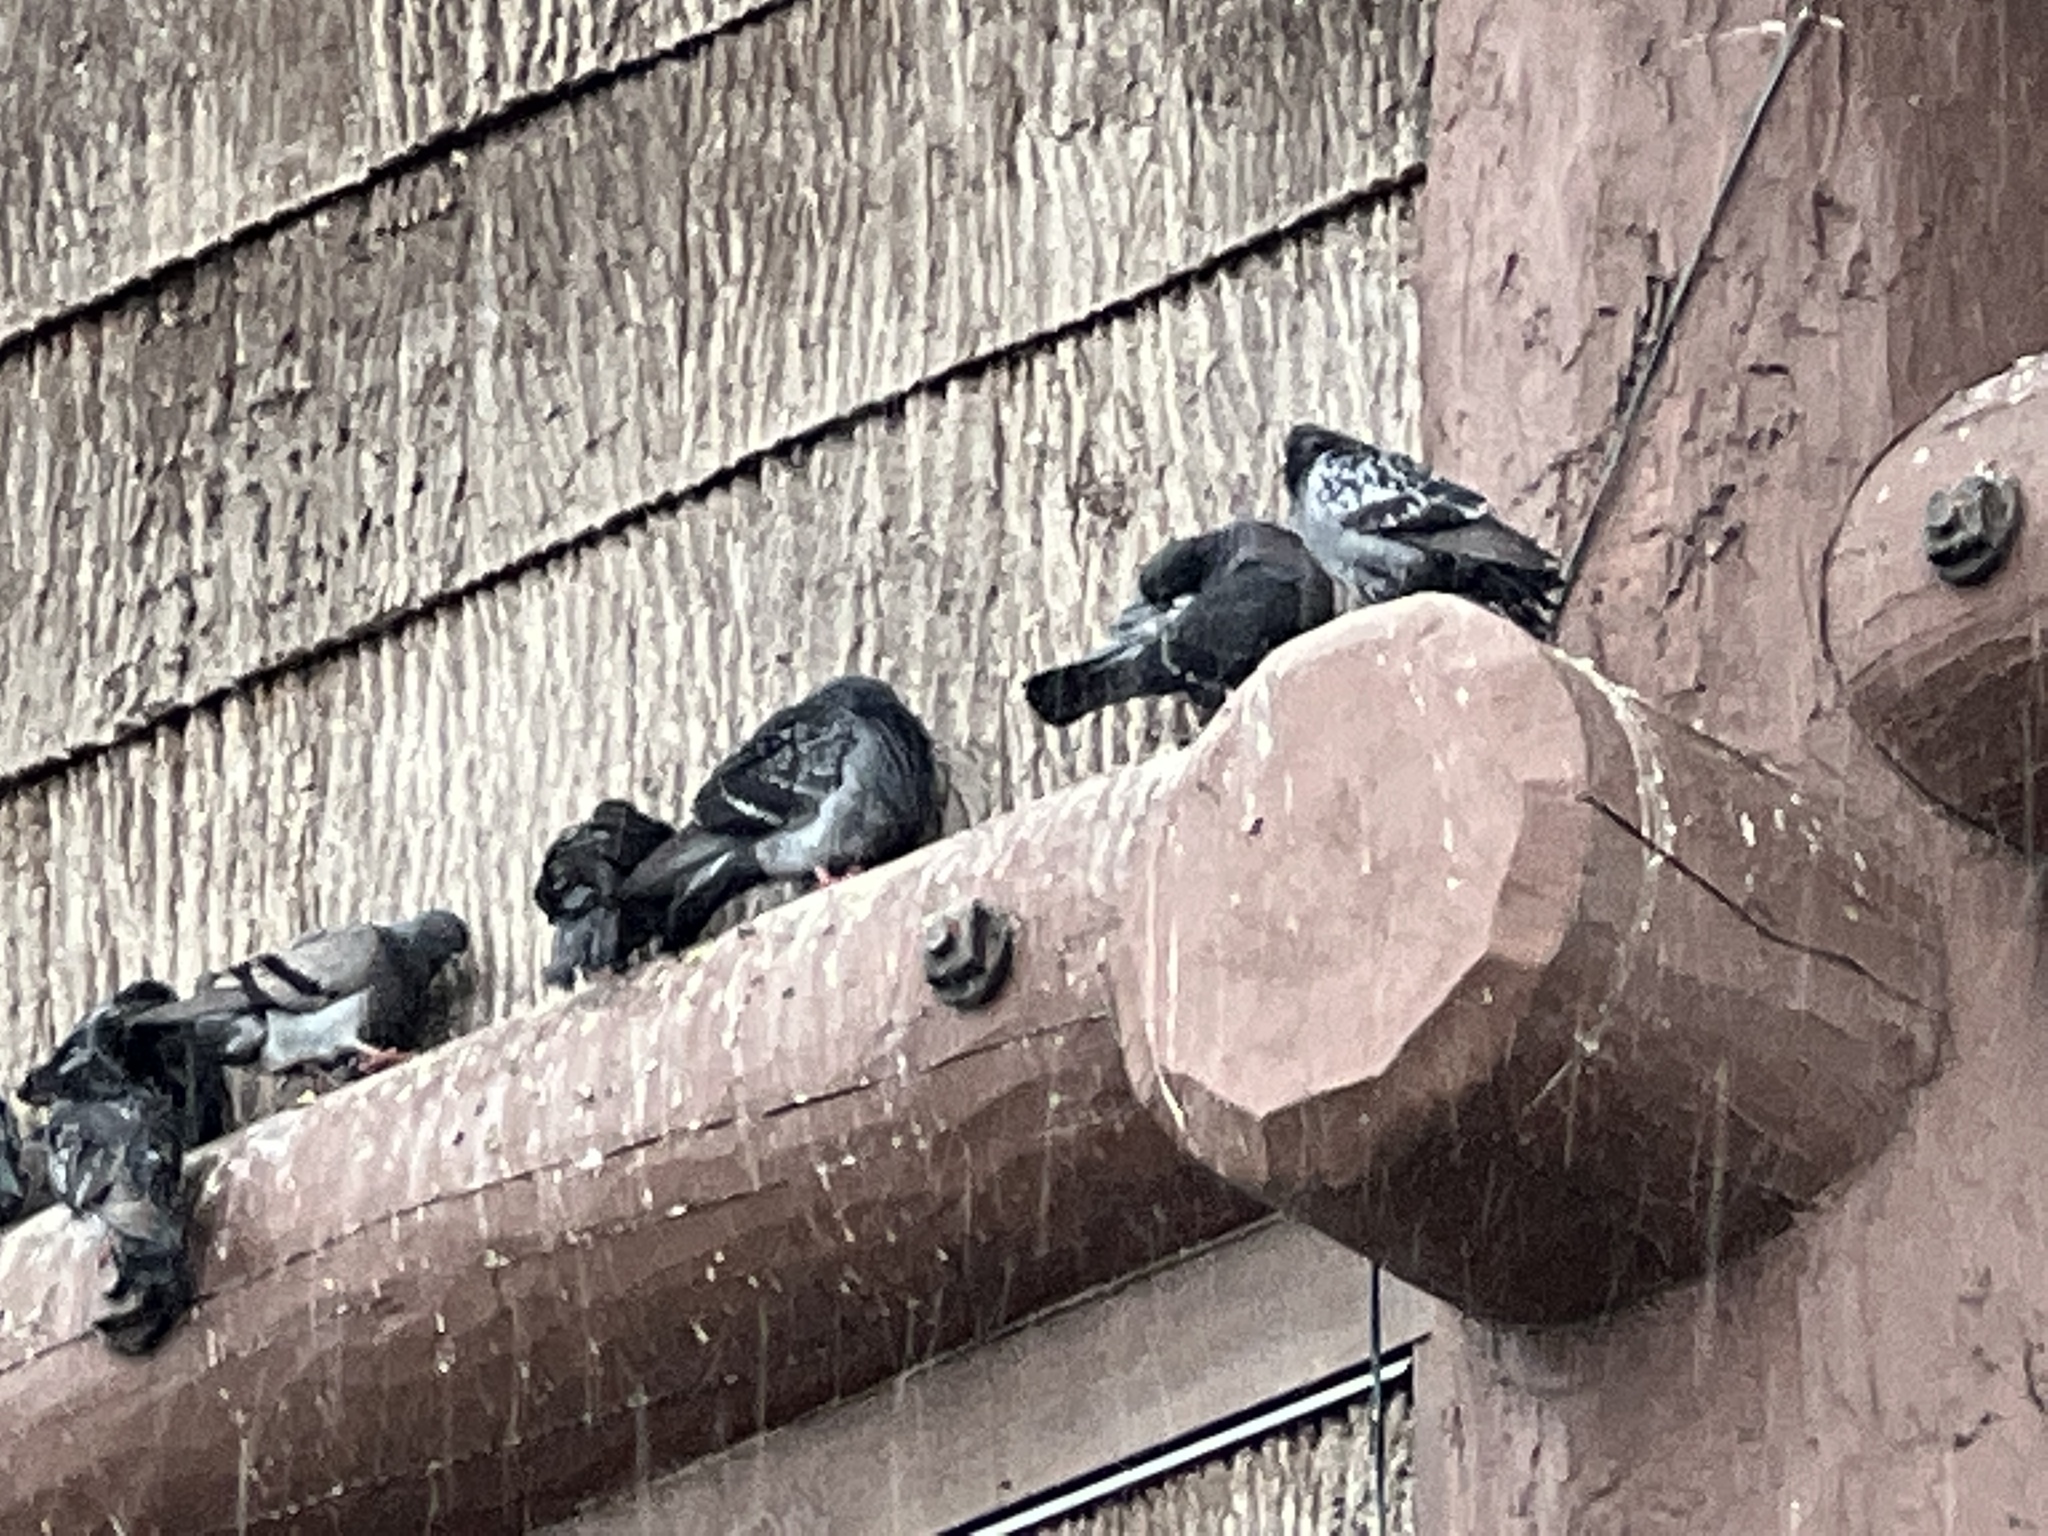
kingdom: Animalia
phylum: Chordata
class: Aves
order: Columbiformes
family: Columbidae
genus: Columba
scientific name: Columba livia
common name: Rock pigeon
